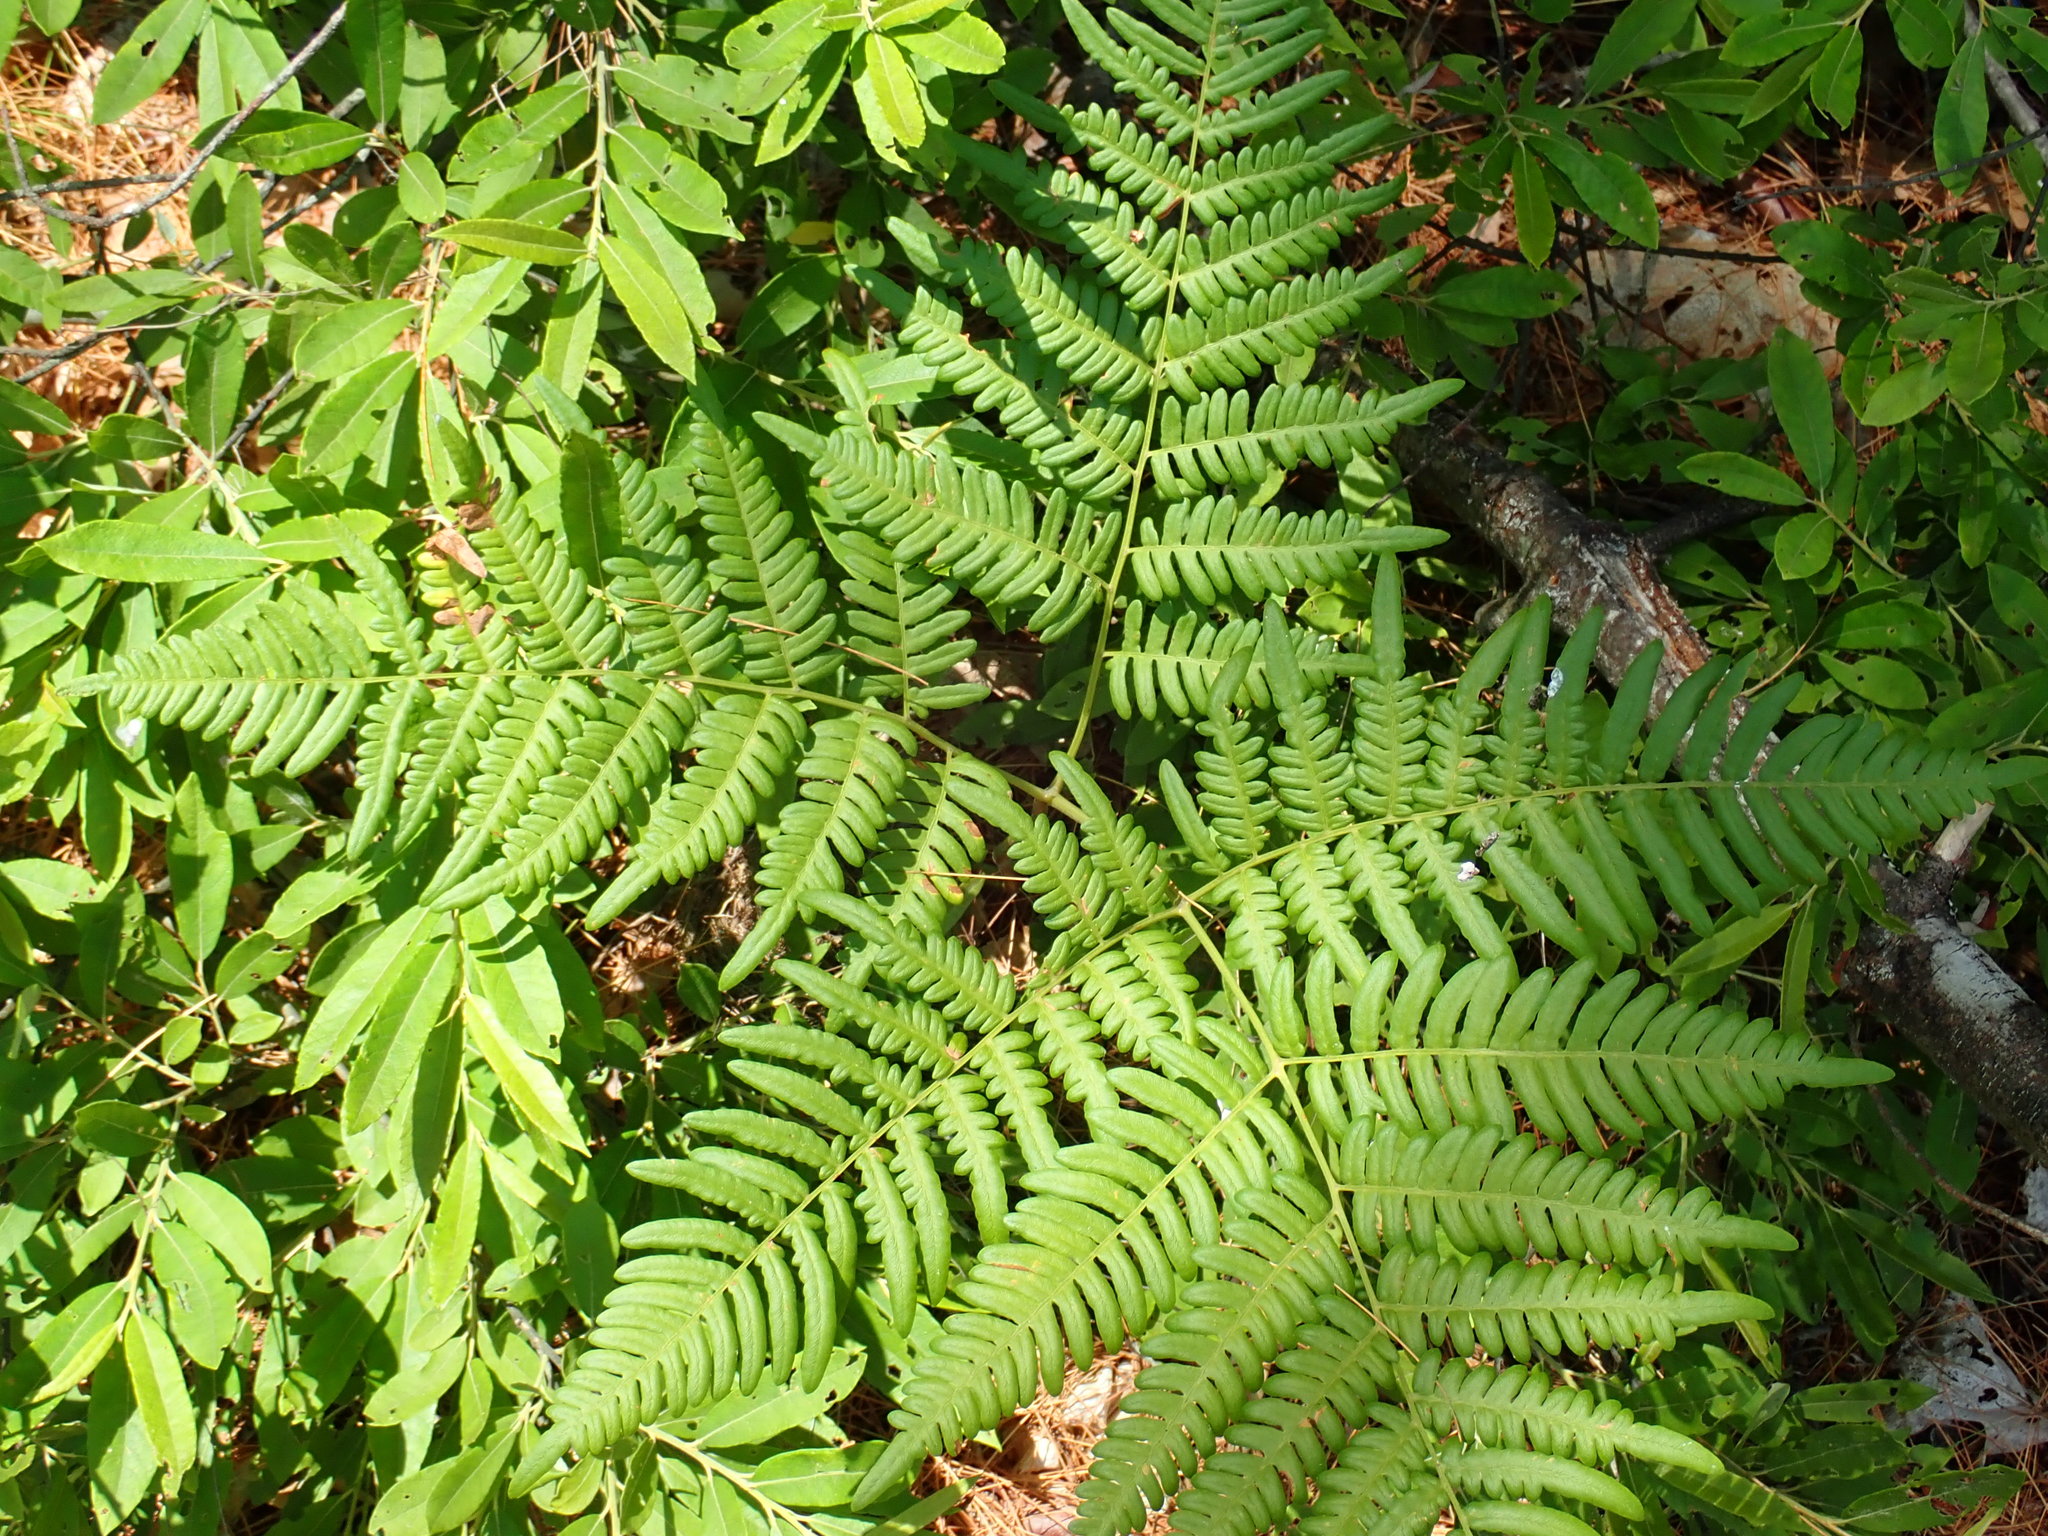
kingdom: Plantae
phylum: Tracheophyta
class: Polypodiopsida
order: Polypodiales
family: Dennstaedtiaceae
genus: Pteridium
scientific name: Pteridium aquilinum
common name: Bracken
